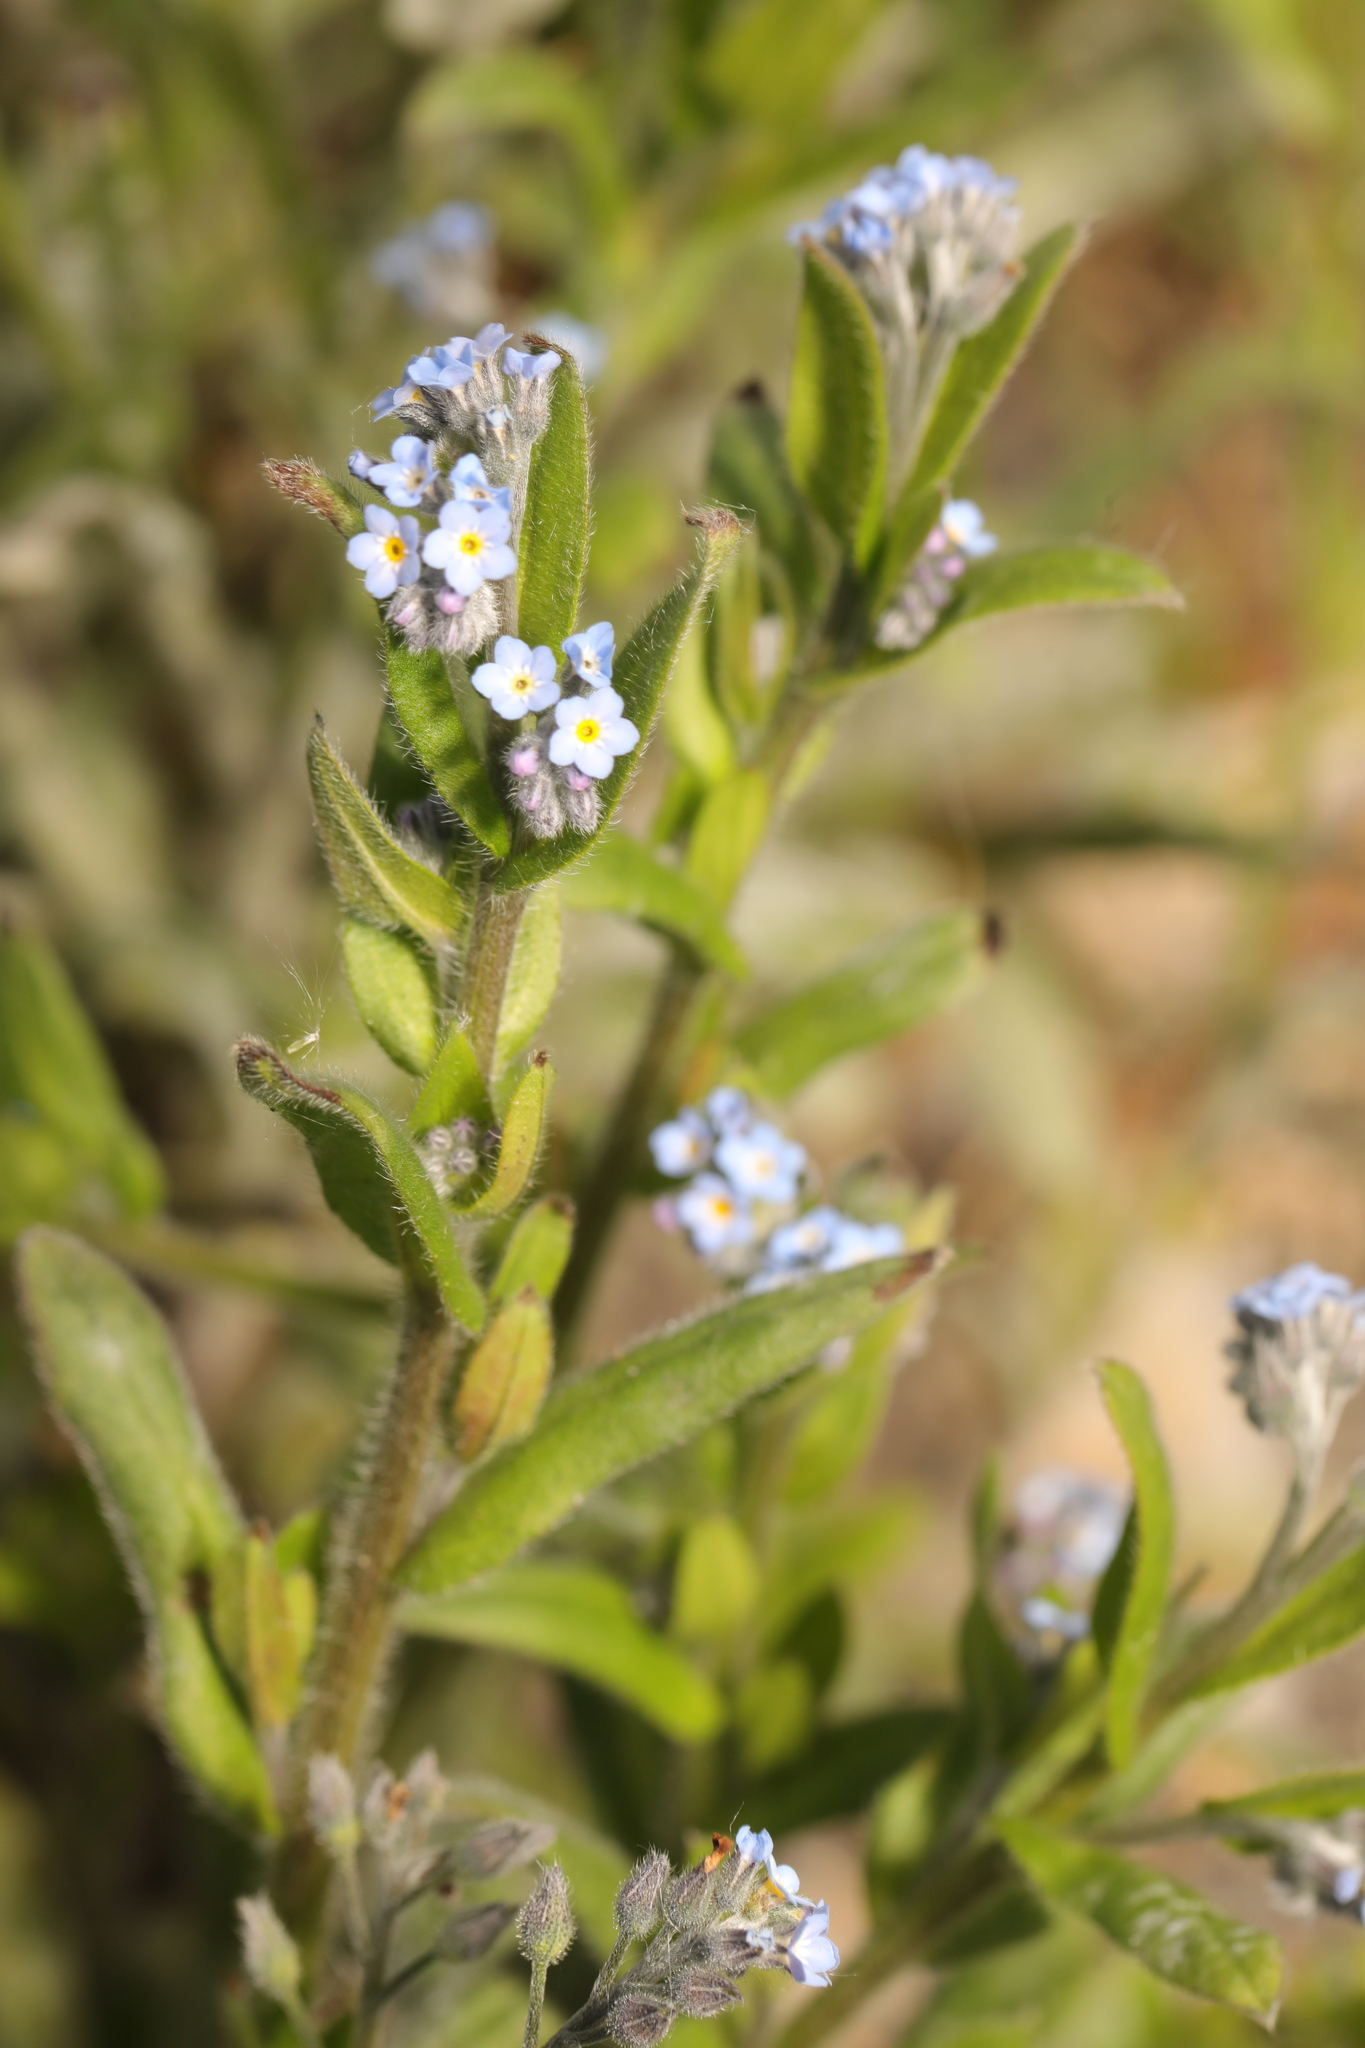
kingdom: Plantae
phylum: Tracheophyta
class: Magnoliopsida
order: Boraginales
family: Boraginaceae
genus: Myosotis
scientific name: Myosotis arvensis
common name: Field forget-me-not
